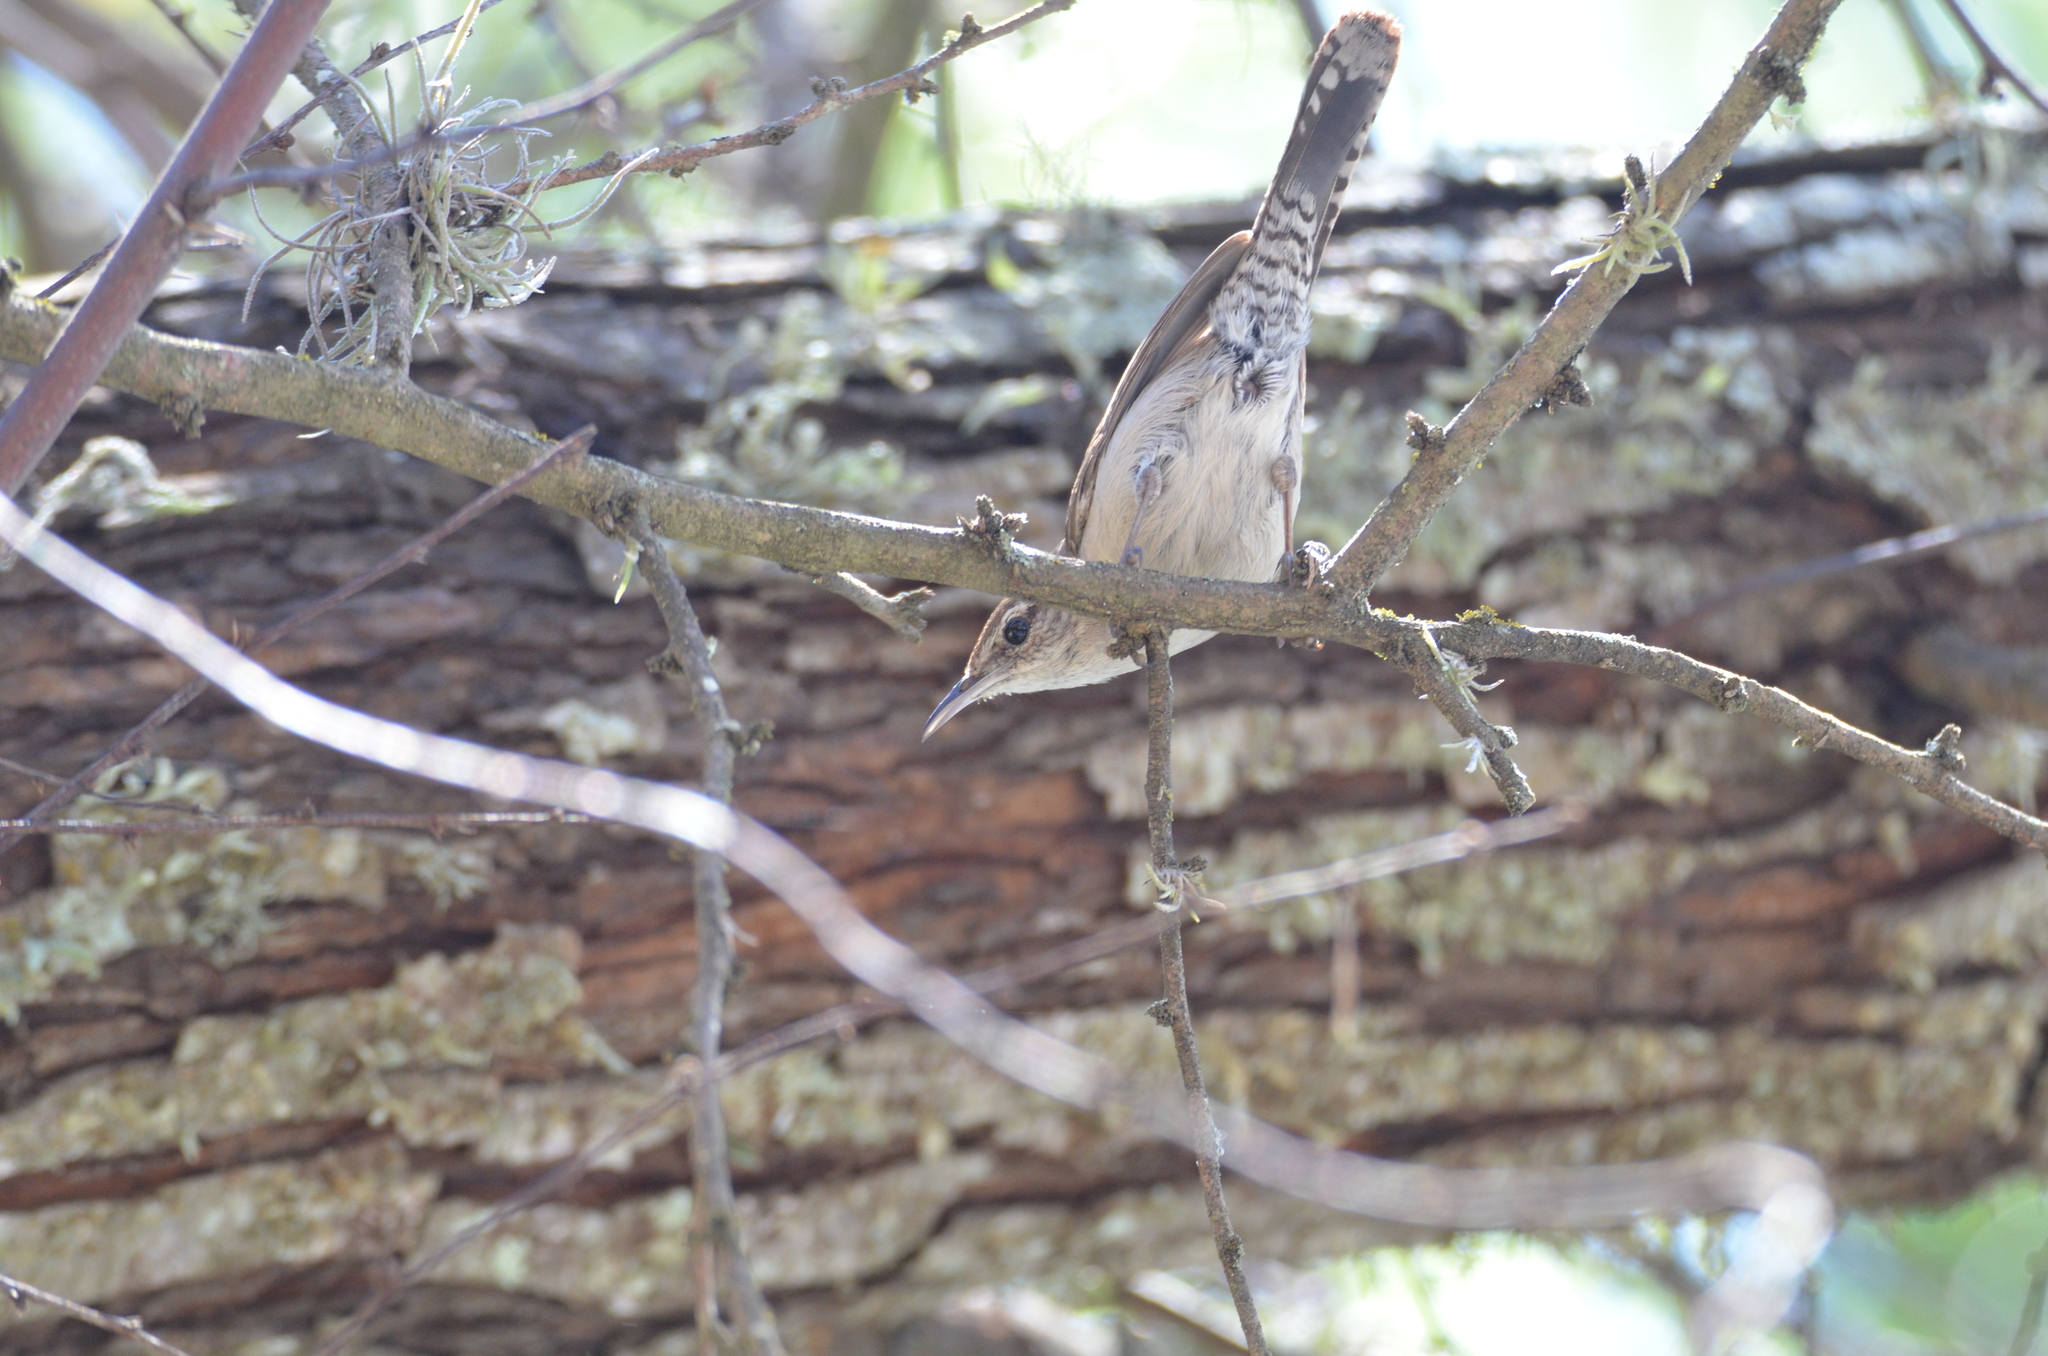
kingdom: Animalia
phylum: Chordata
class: Aves
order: Passeriformes
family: Troglodytidae
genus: Thryomanes
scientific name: Thryomanes bewickii
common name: Bewick's wren
